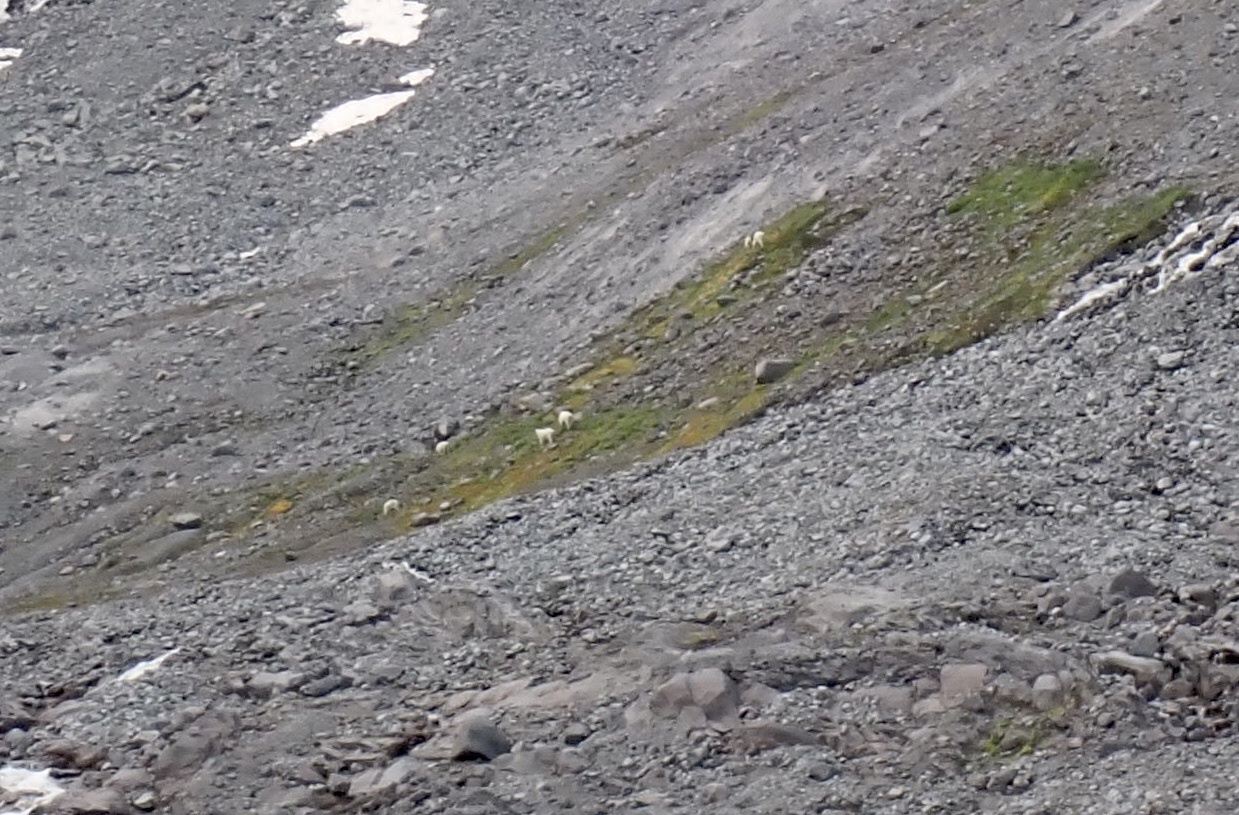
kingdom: Animalia
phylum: Chordata
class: Mammalia
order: Artiodactyla
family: Bovidae
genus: Oreamnos
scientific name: Oreamnos americanus
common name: Mountain goat
